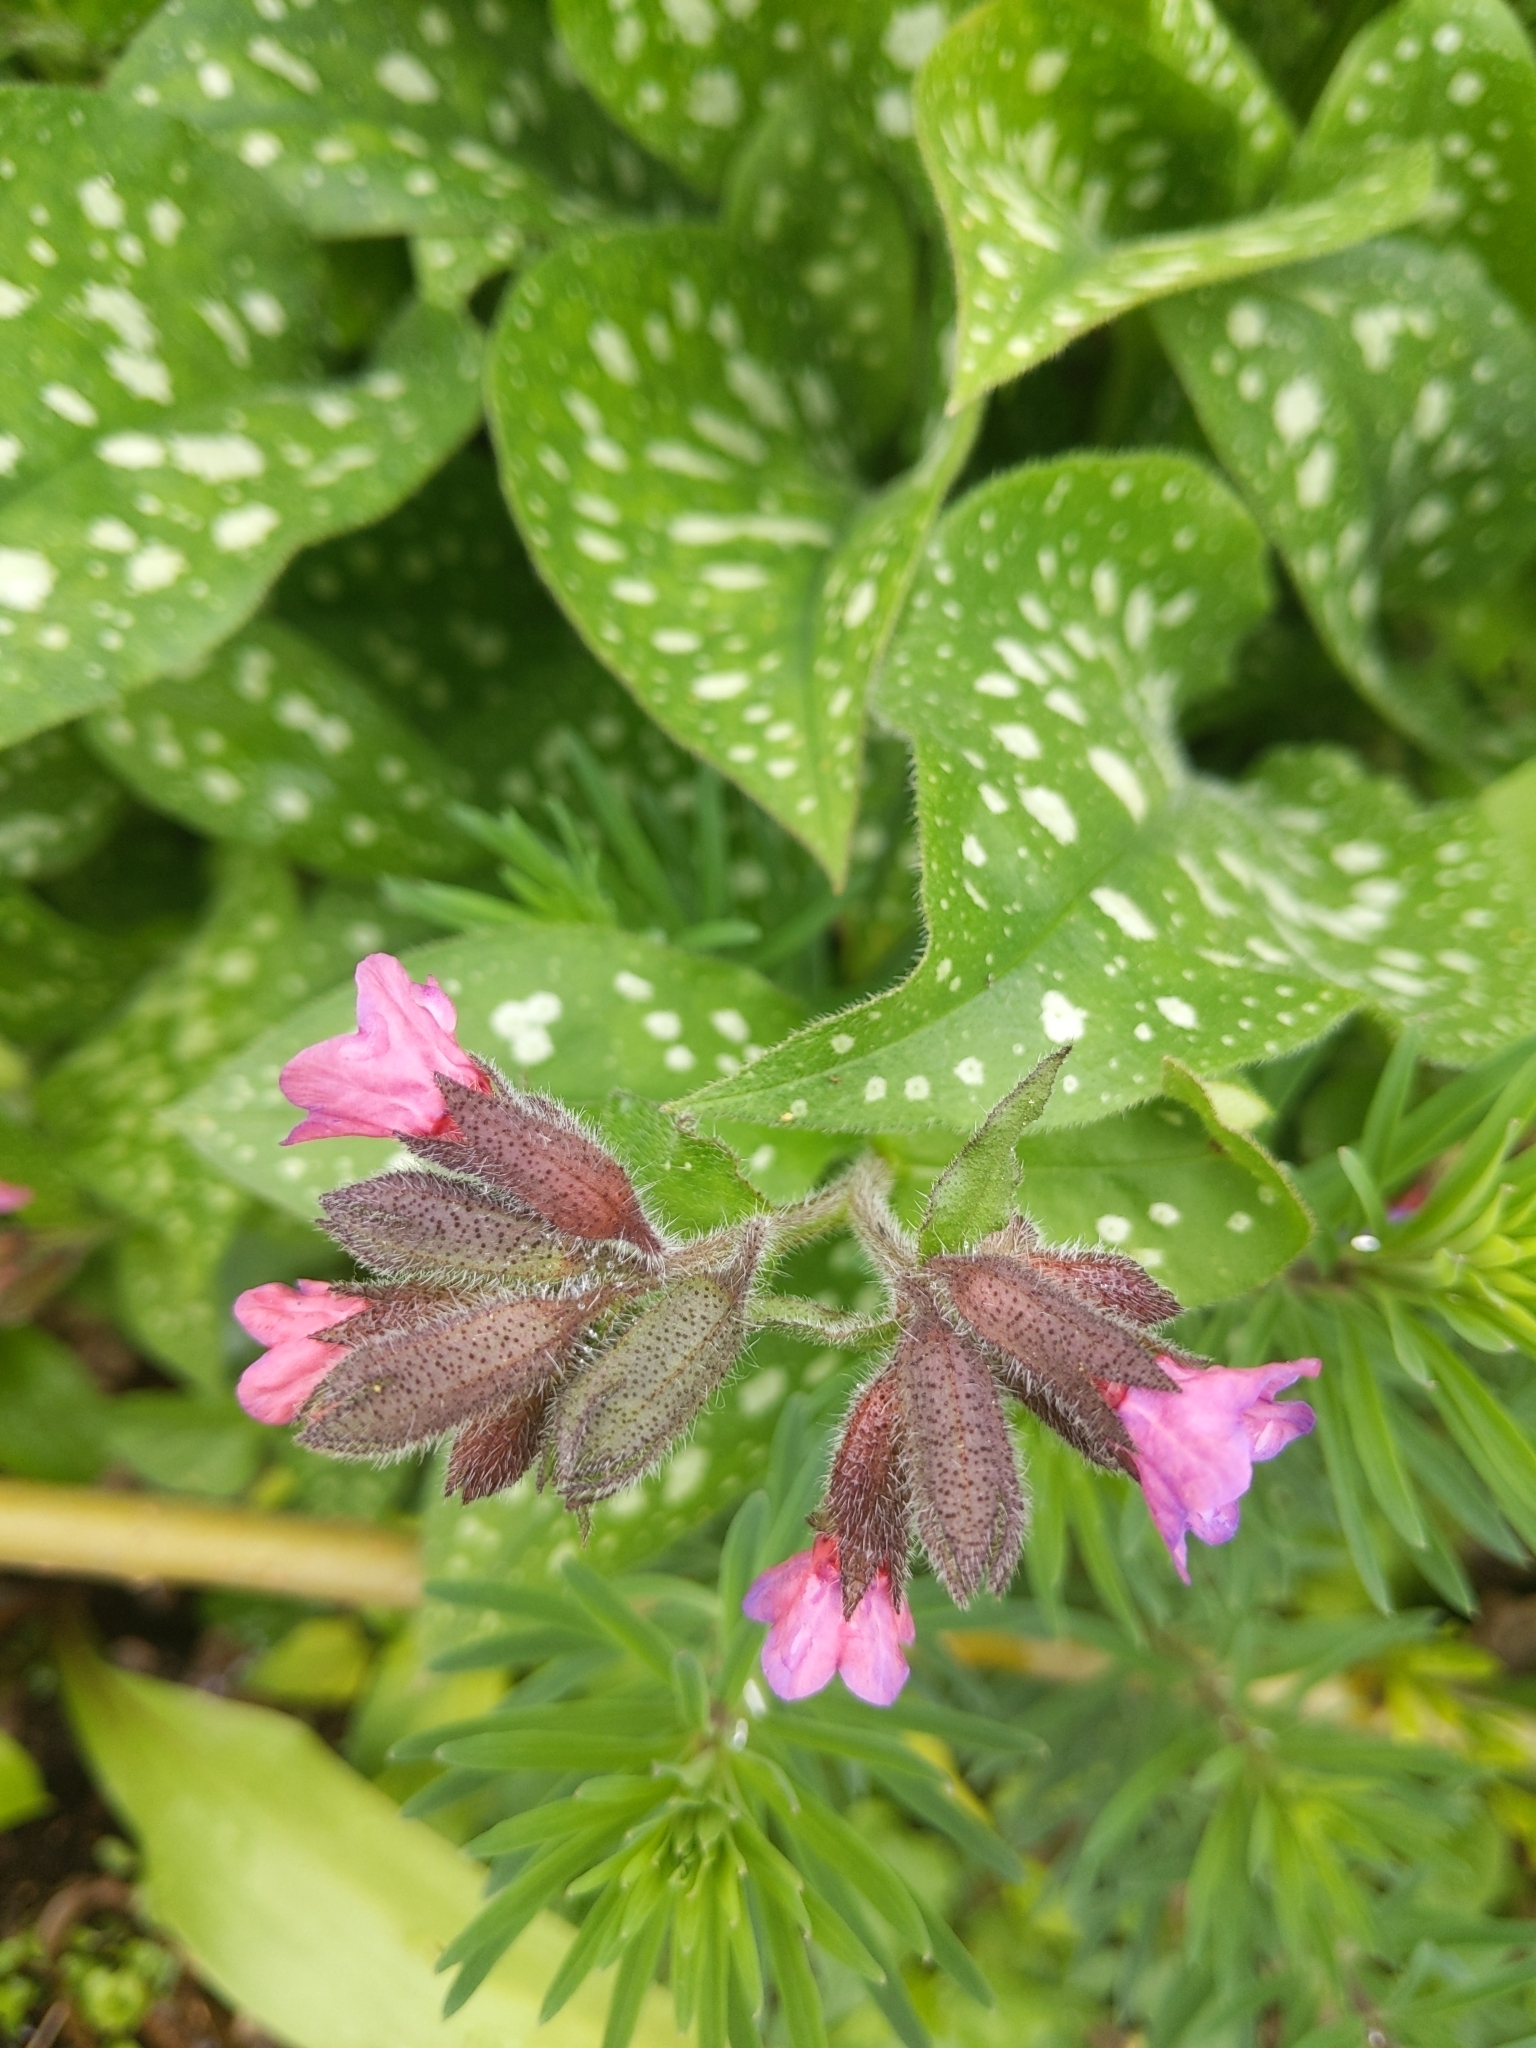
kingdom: Plantae
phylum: Tracheophyta
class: Magnoliopsida
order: Boraginales
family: Boraginaceae
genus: Pulmonaria
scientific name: Pulmonaria officinalis
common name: Lungwort
